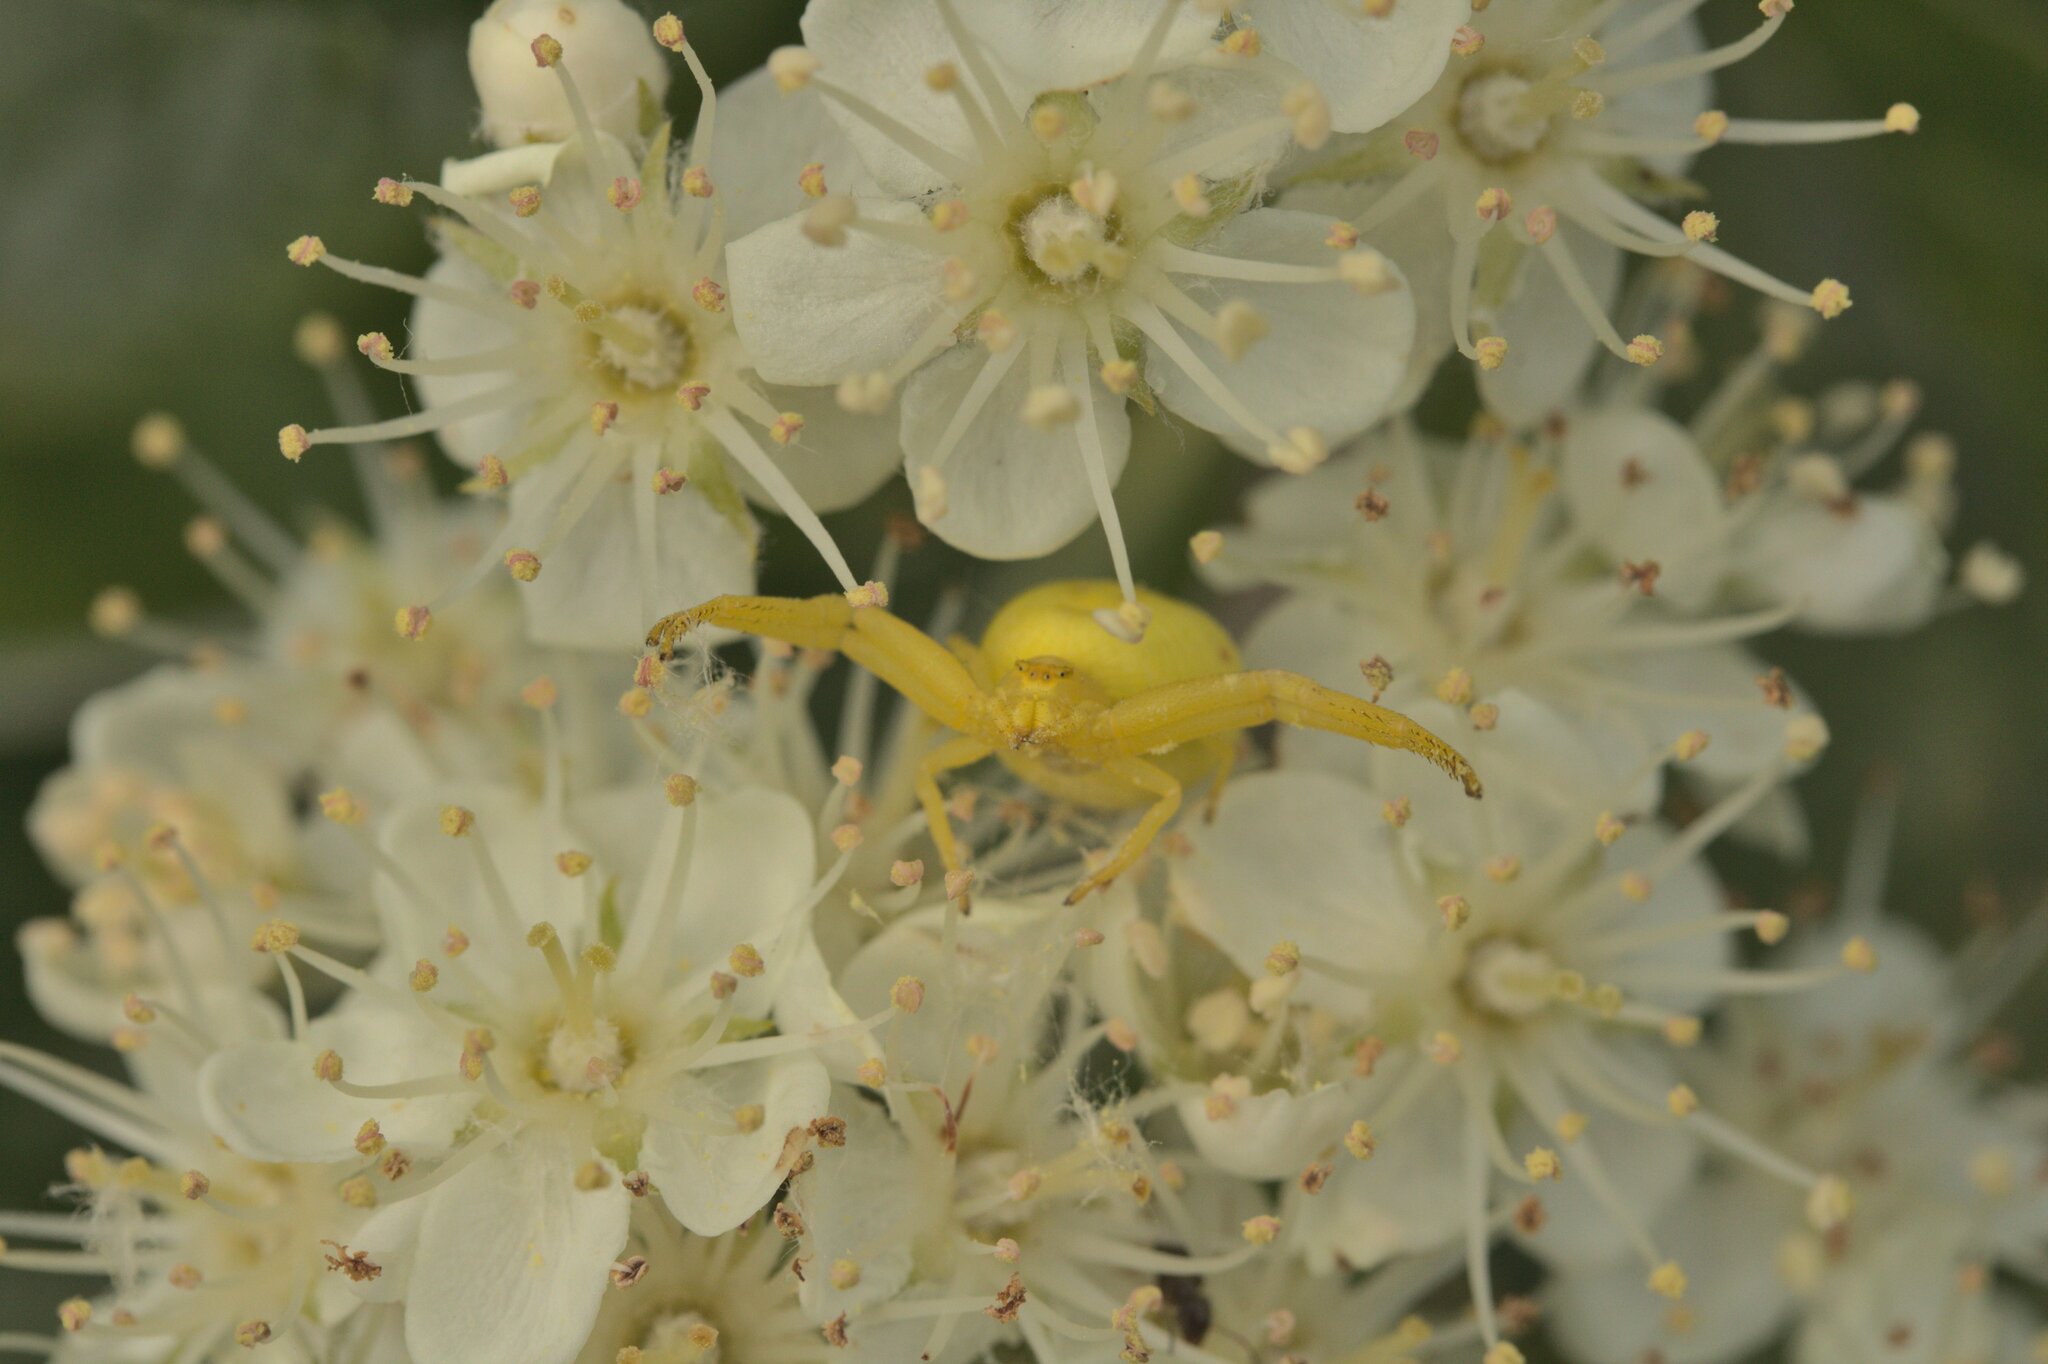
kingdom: Animalia
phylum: Arthropoda
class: Arachnida
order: Araneae
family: Thomisidae
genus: Misumena
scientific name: Misumena vatia
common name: Goldenrod crab spider
